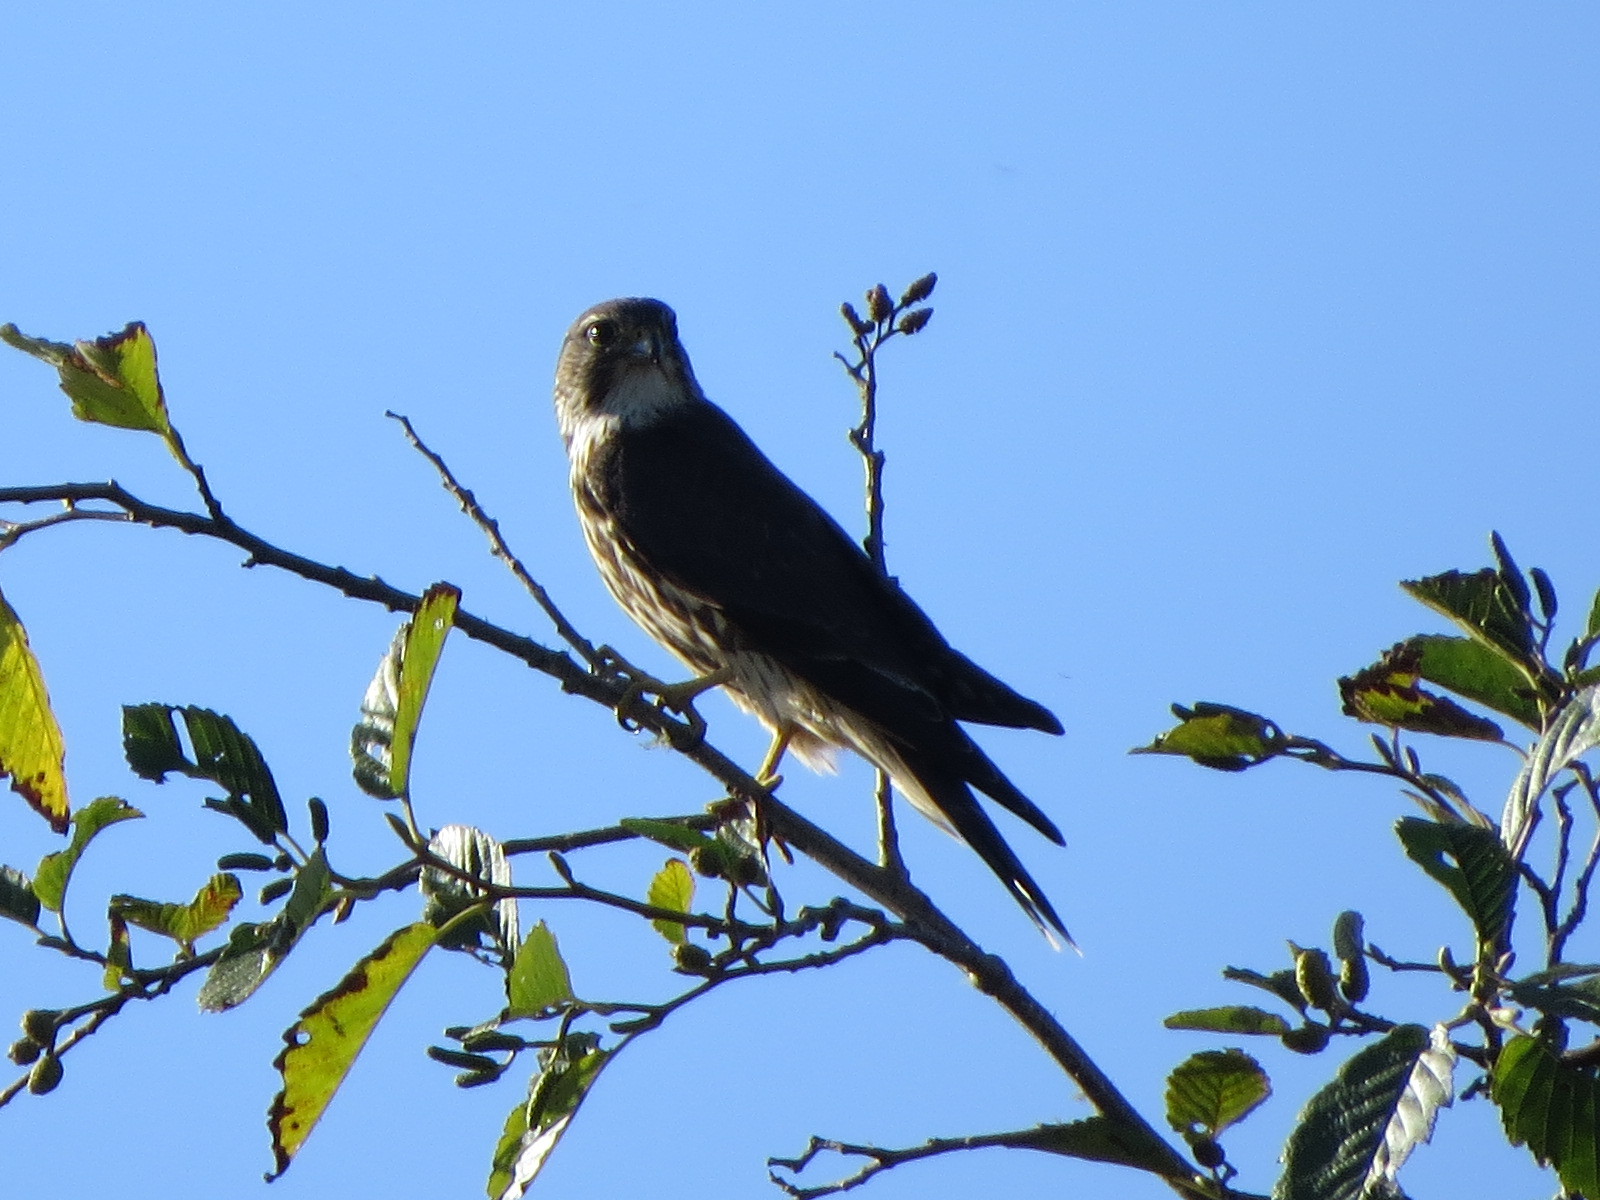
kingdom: Animalia
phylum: Chordata
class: Aves
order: Falconiformes
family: Falconidae
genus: Falco
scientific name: Falco columbarius
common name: Merlin
